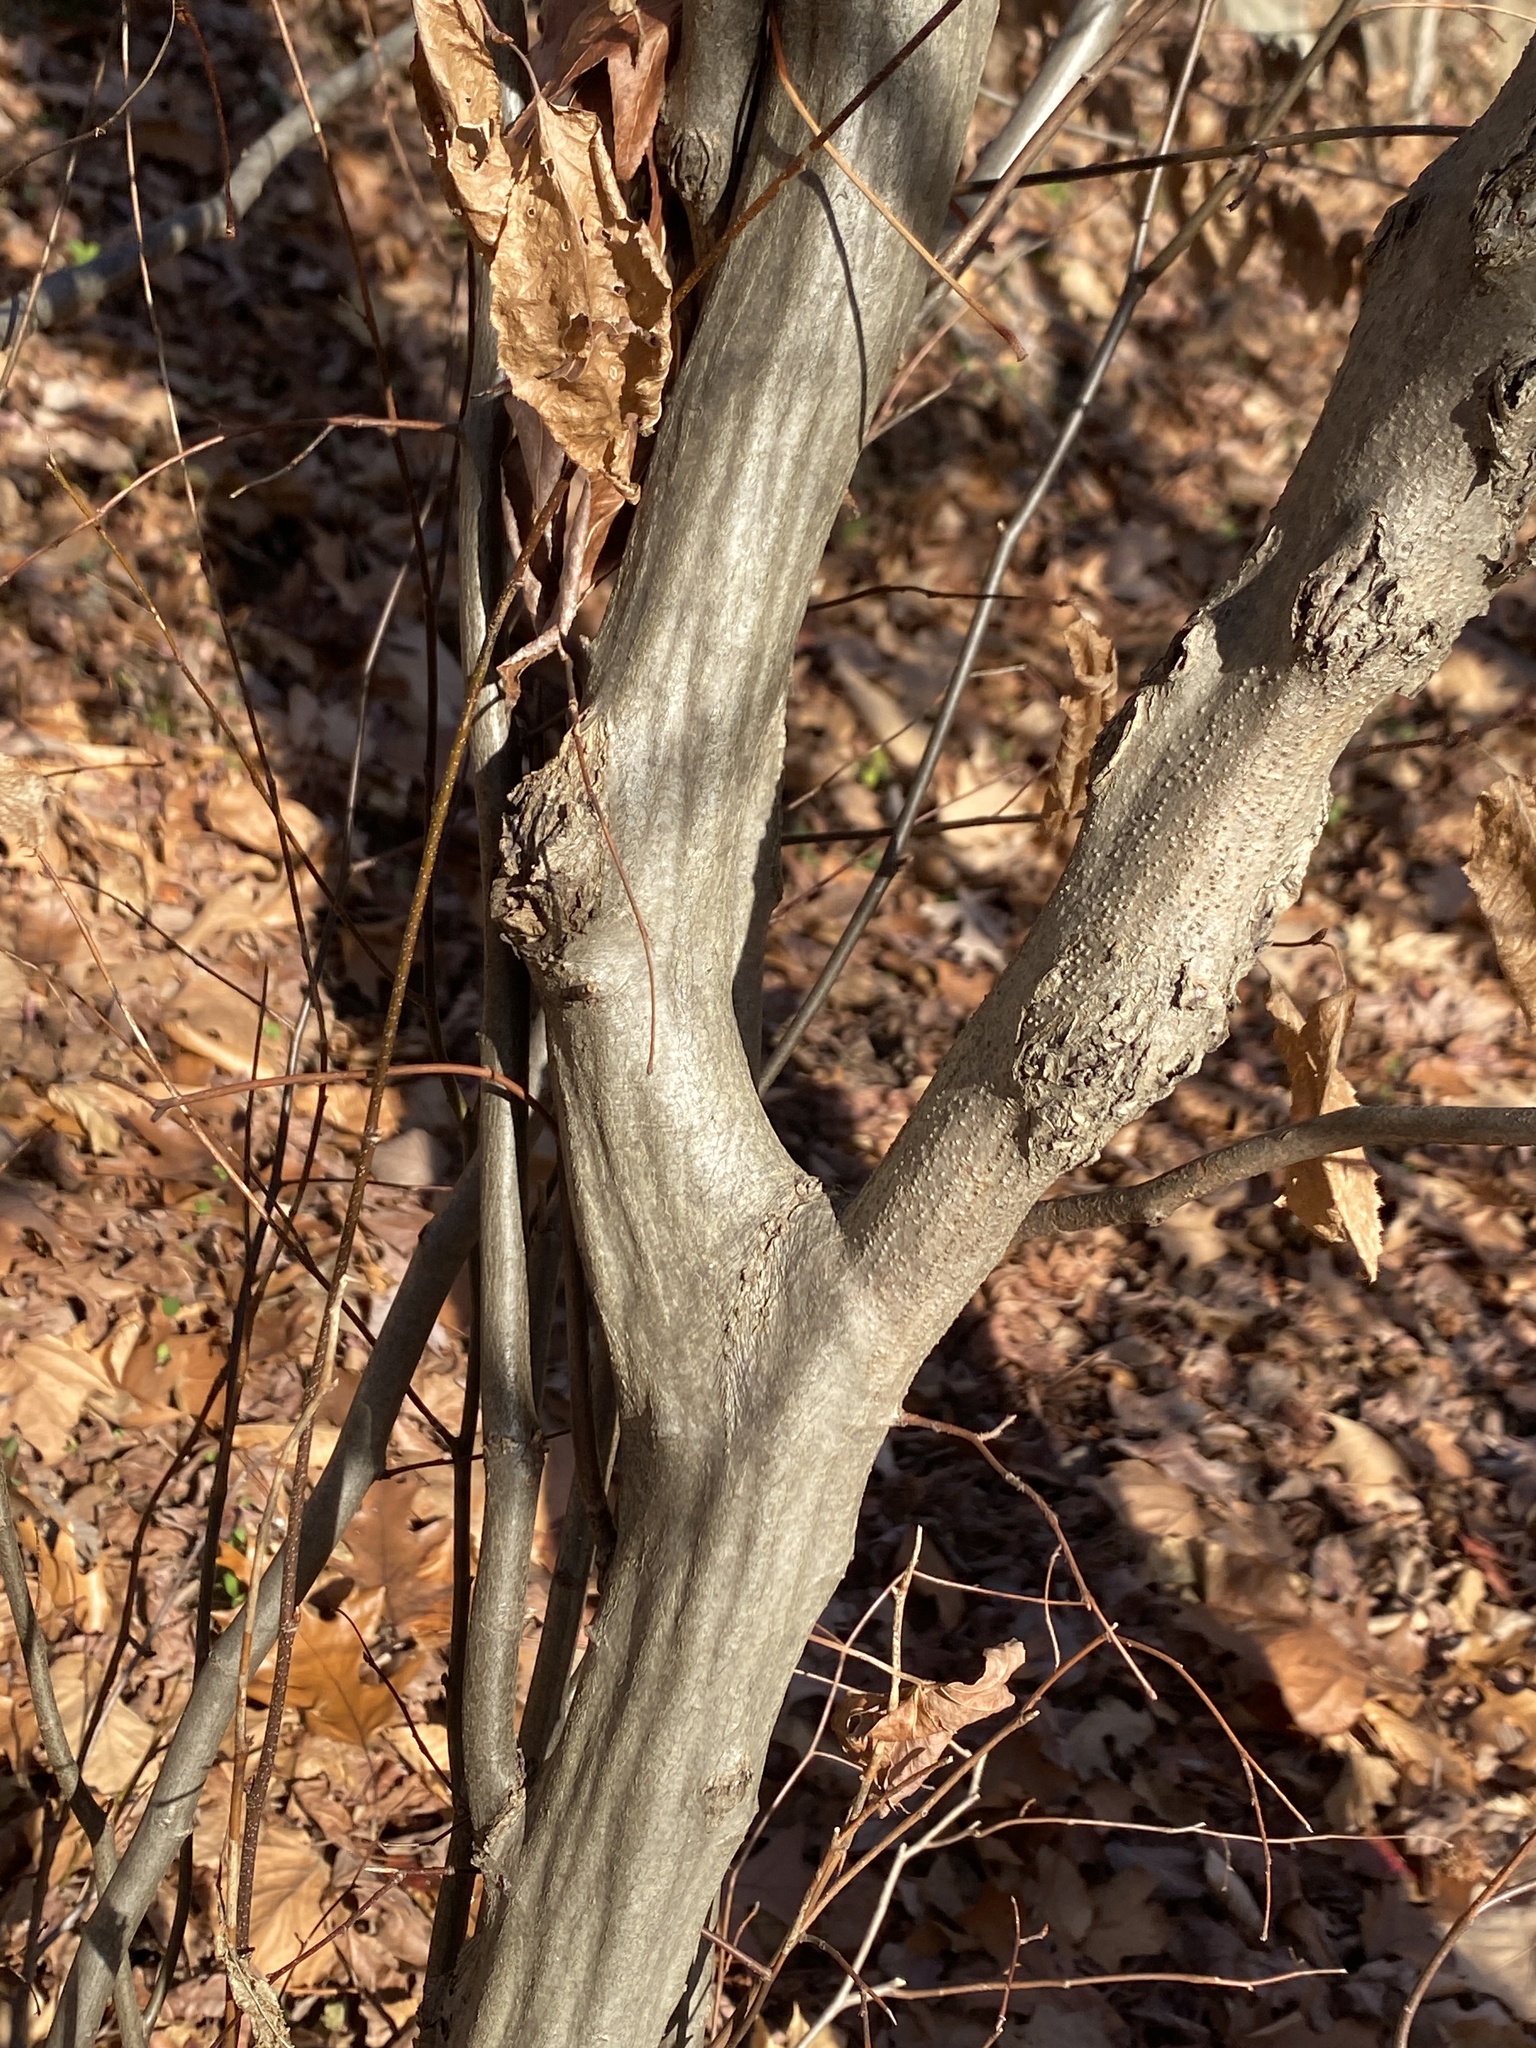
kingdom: Plantae
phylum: Tracheophyta
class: Magnoliopsida
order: Fagales
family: Betulaceae
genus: Carpinus
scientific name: Carpinus caroliniana
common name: American hornbeam
